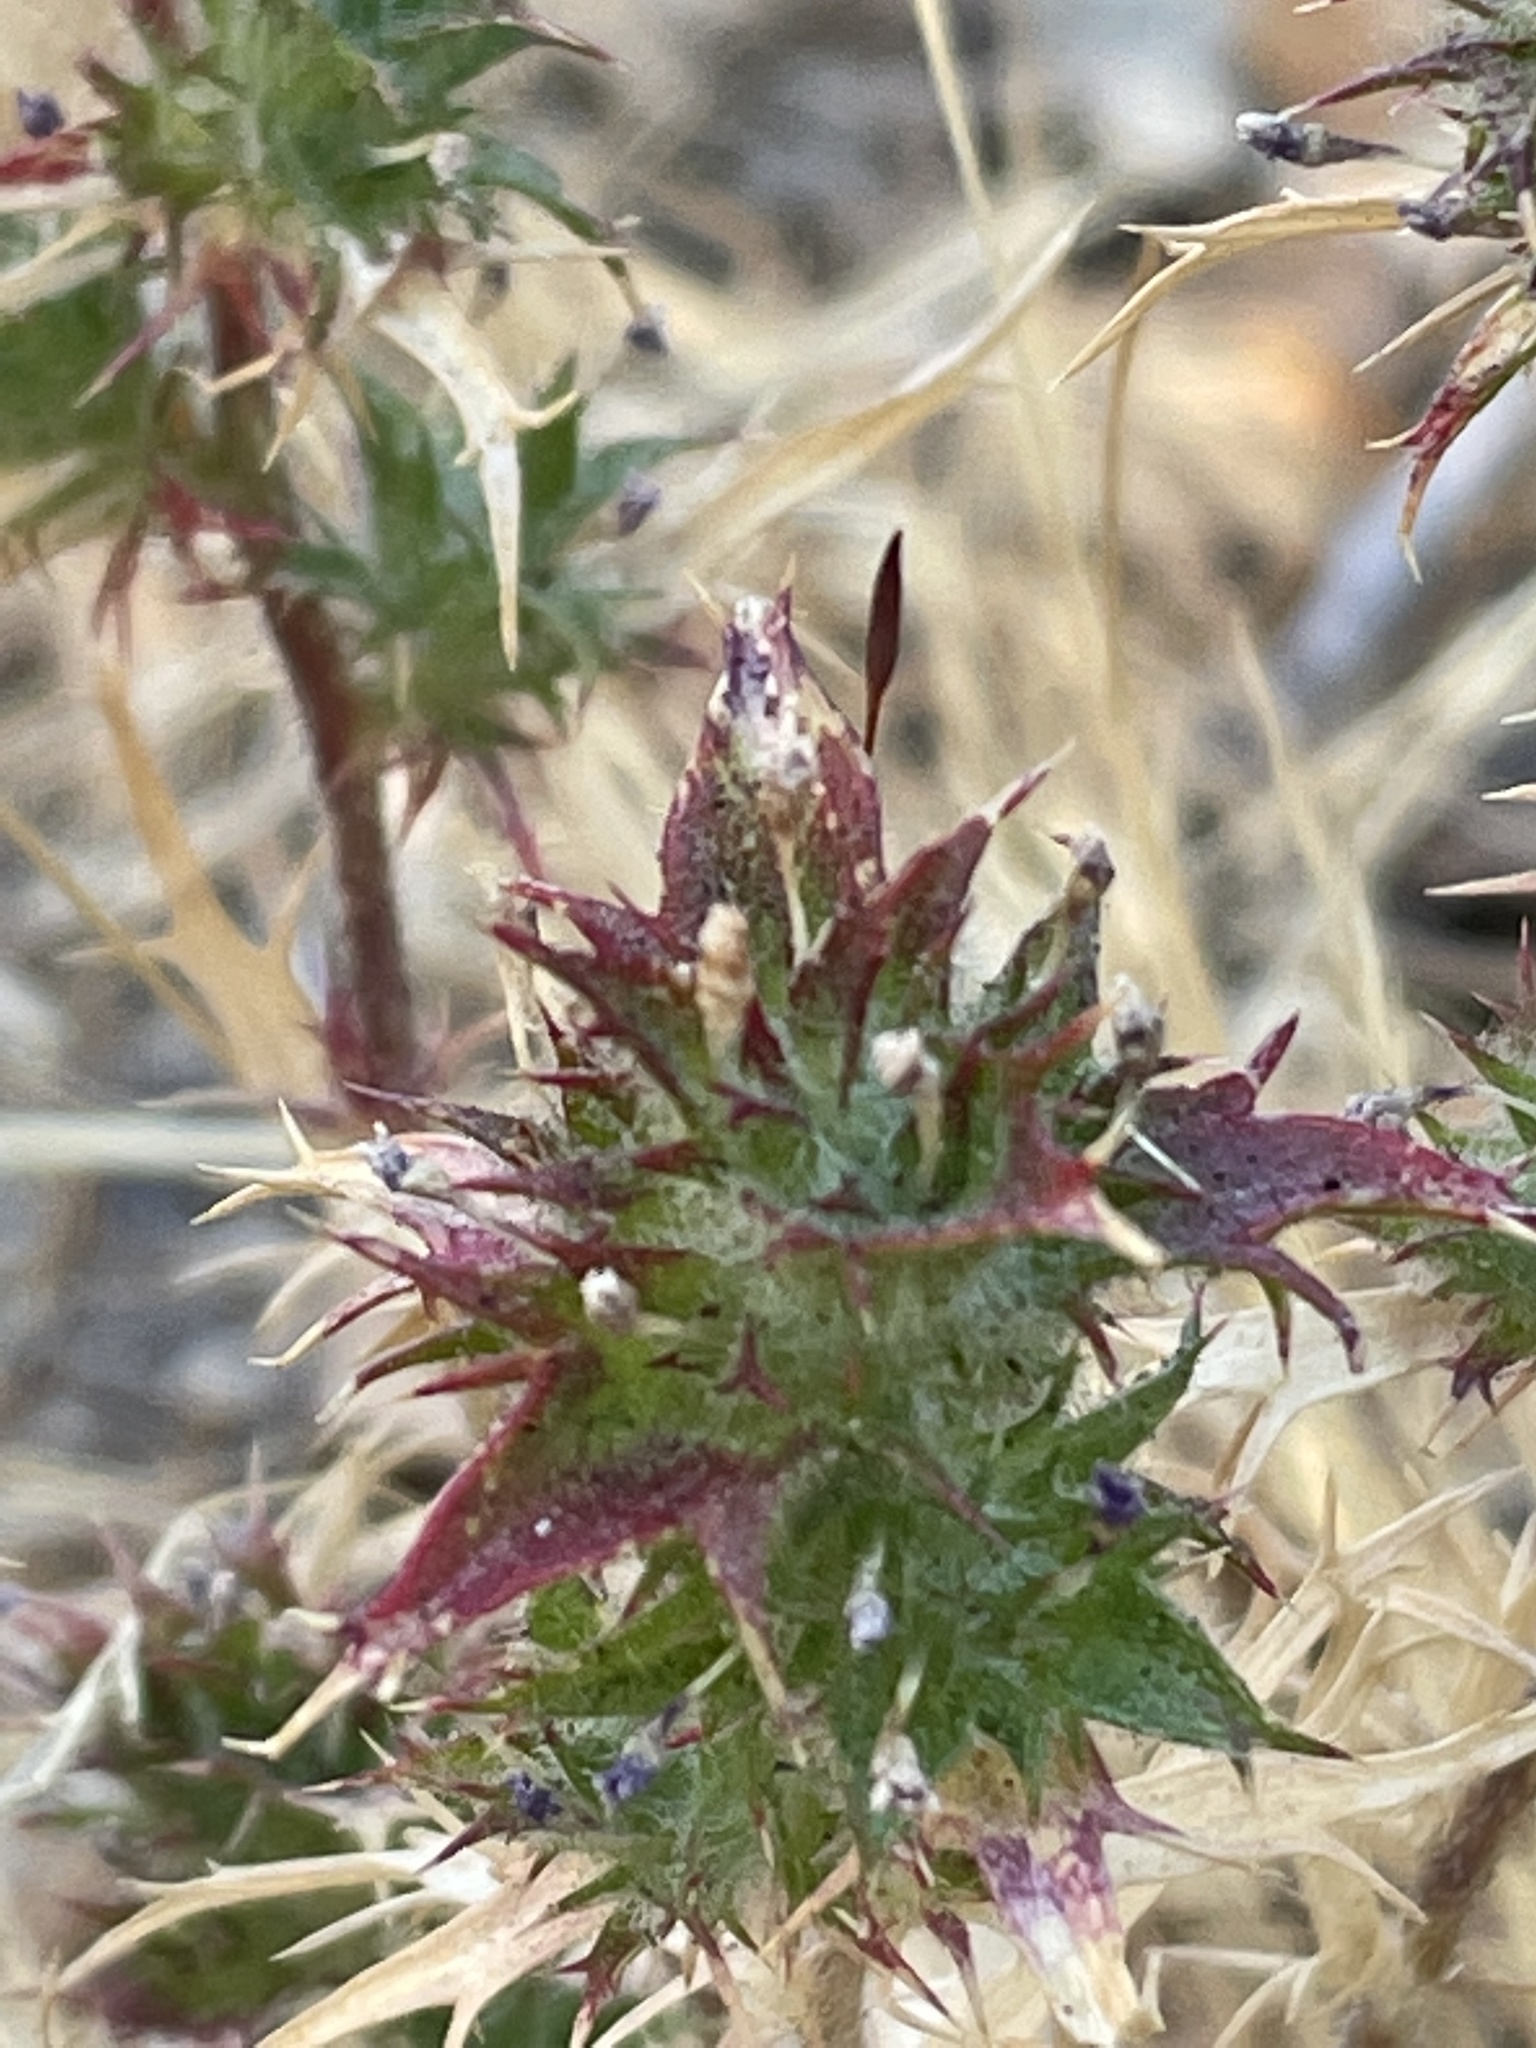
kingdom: Plantae
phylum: Tracheophyta
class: Magnoliopsida
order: Ericales
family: Polemoniaceae
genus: Navarretia
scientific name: Navarretia atractyloides
